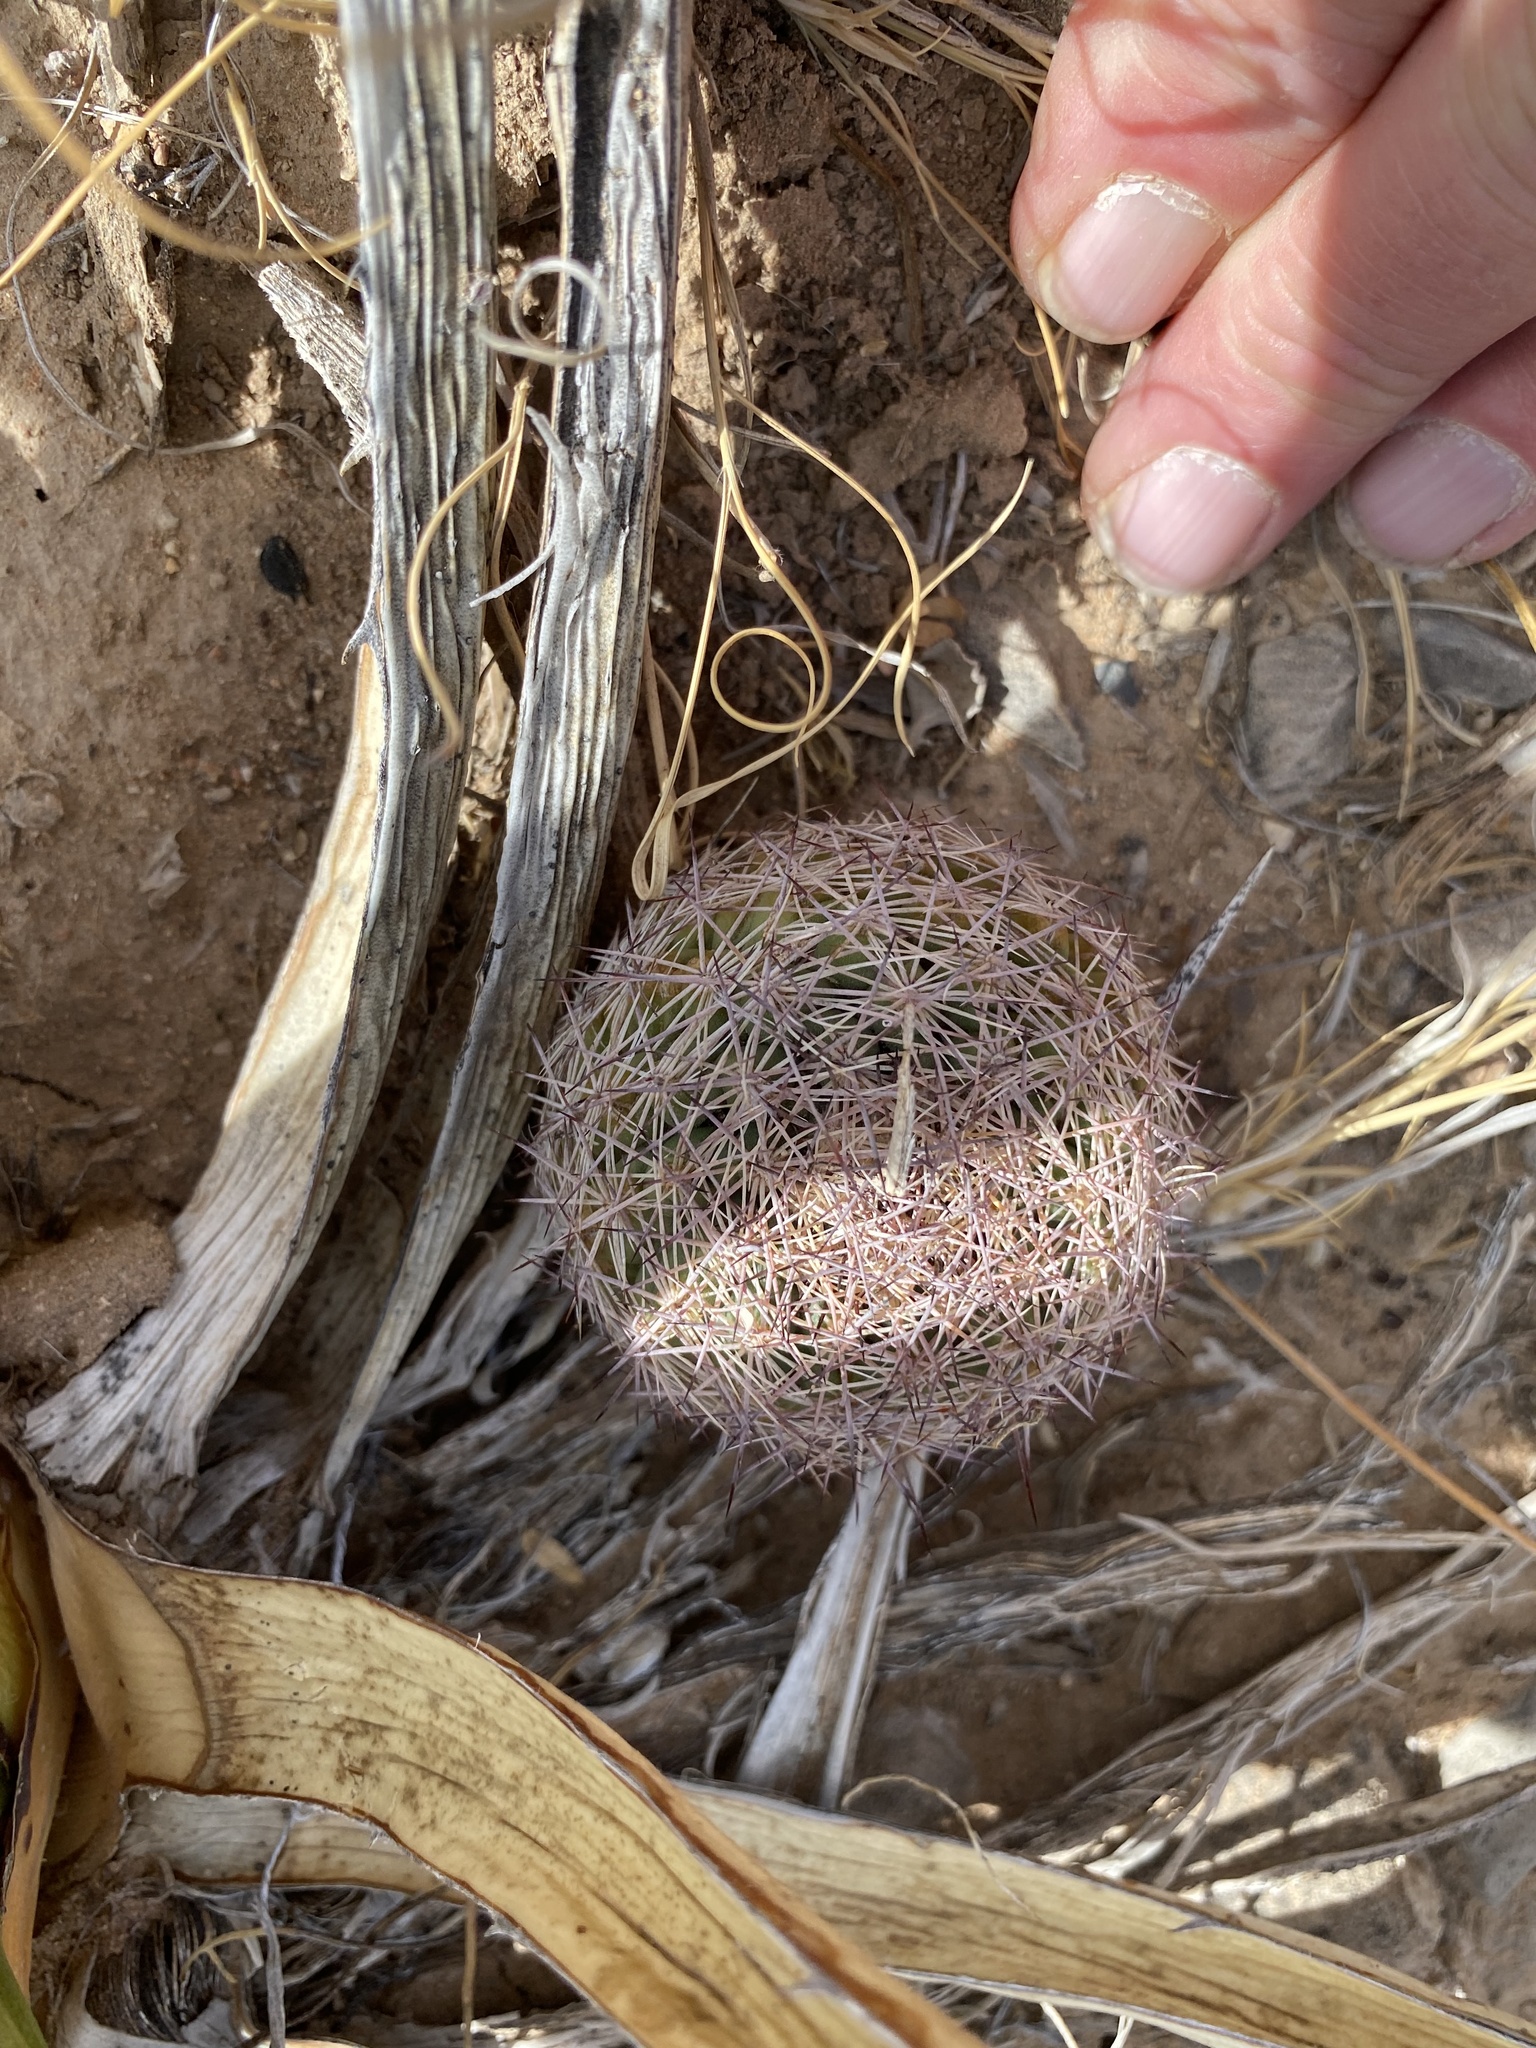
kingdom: Plantae
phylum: Tracheophyta
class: Magnoliopsida
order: Caryophyllales
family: Cactaceae
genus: Sclerocactus
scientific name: Sclerocactus intertextus
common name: White fish-hook cactus
